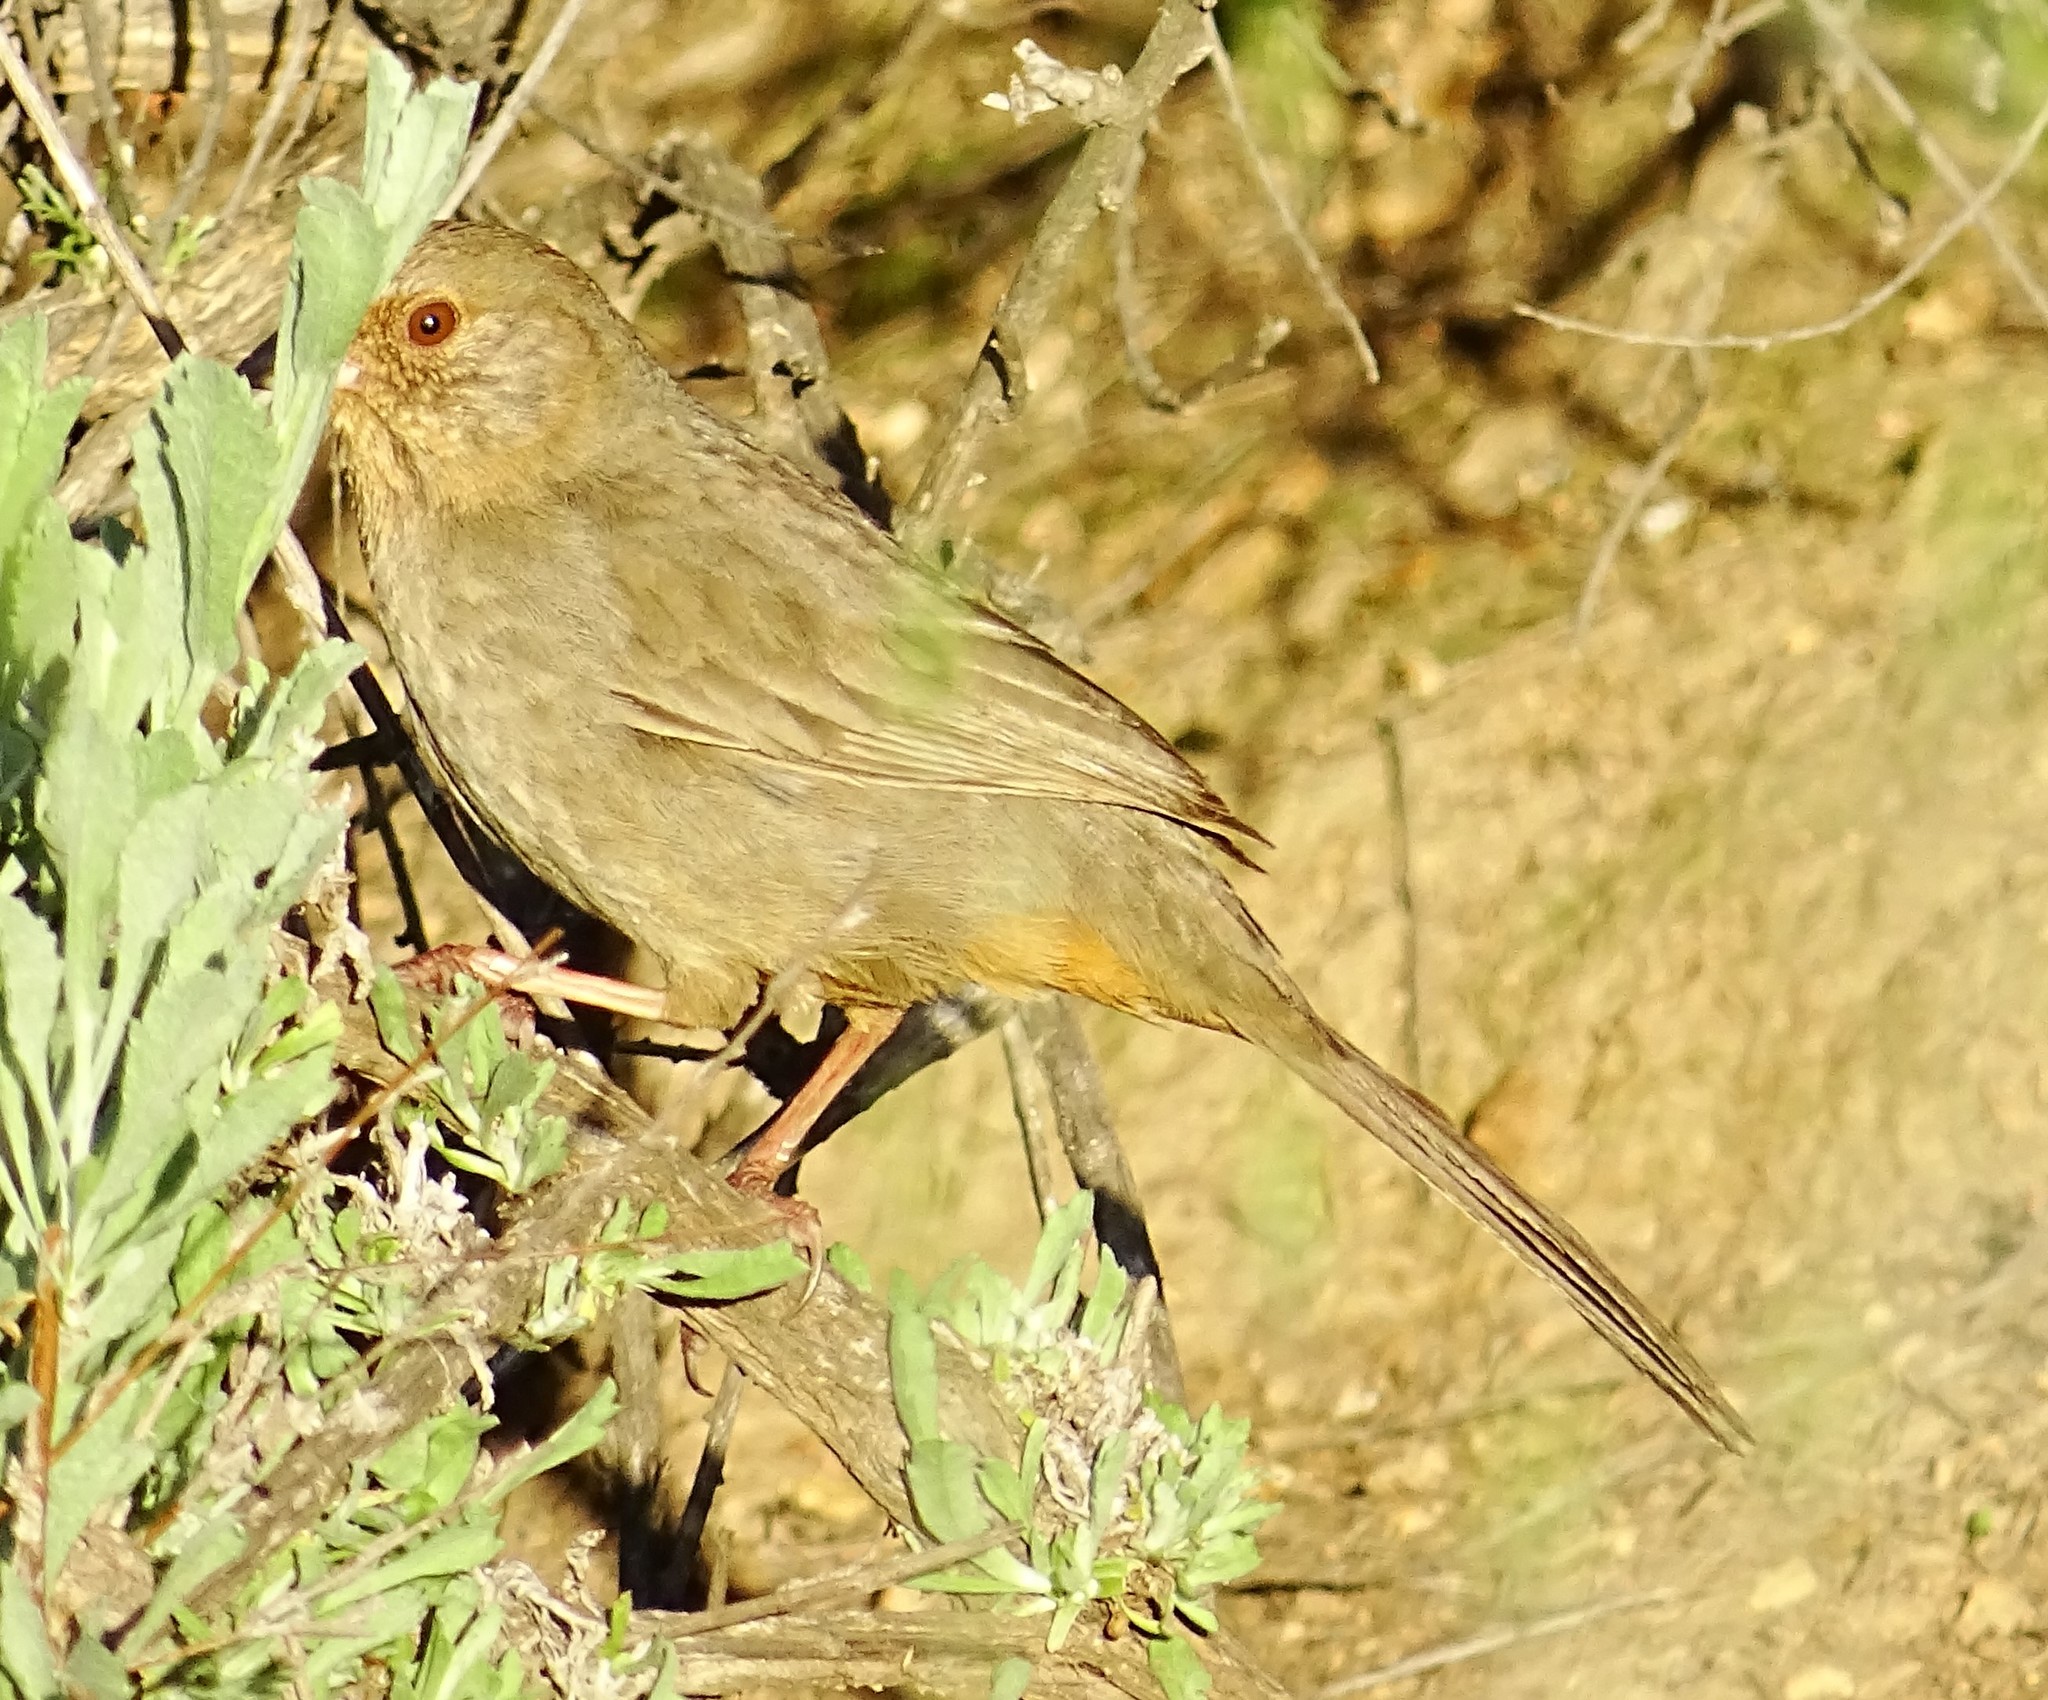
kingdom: Animalia
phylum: Chordata
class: Aves
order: Passeriformes
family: Passerellidae
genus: Melozone
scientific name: Melozone crissalis
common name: California towhee
